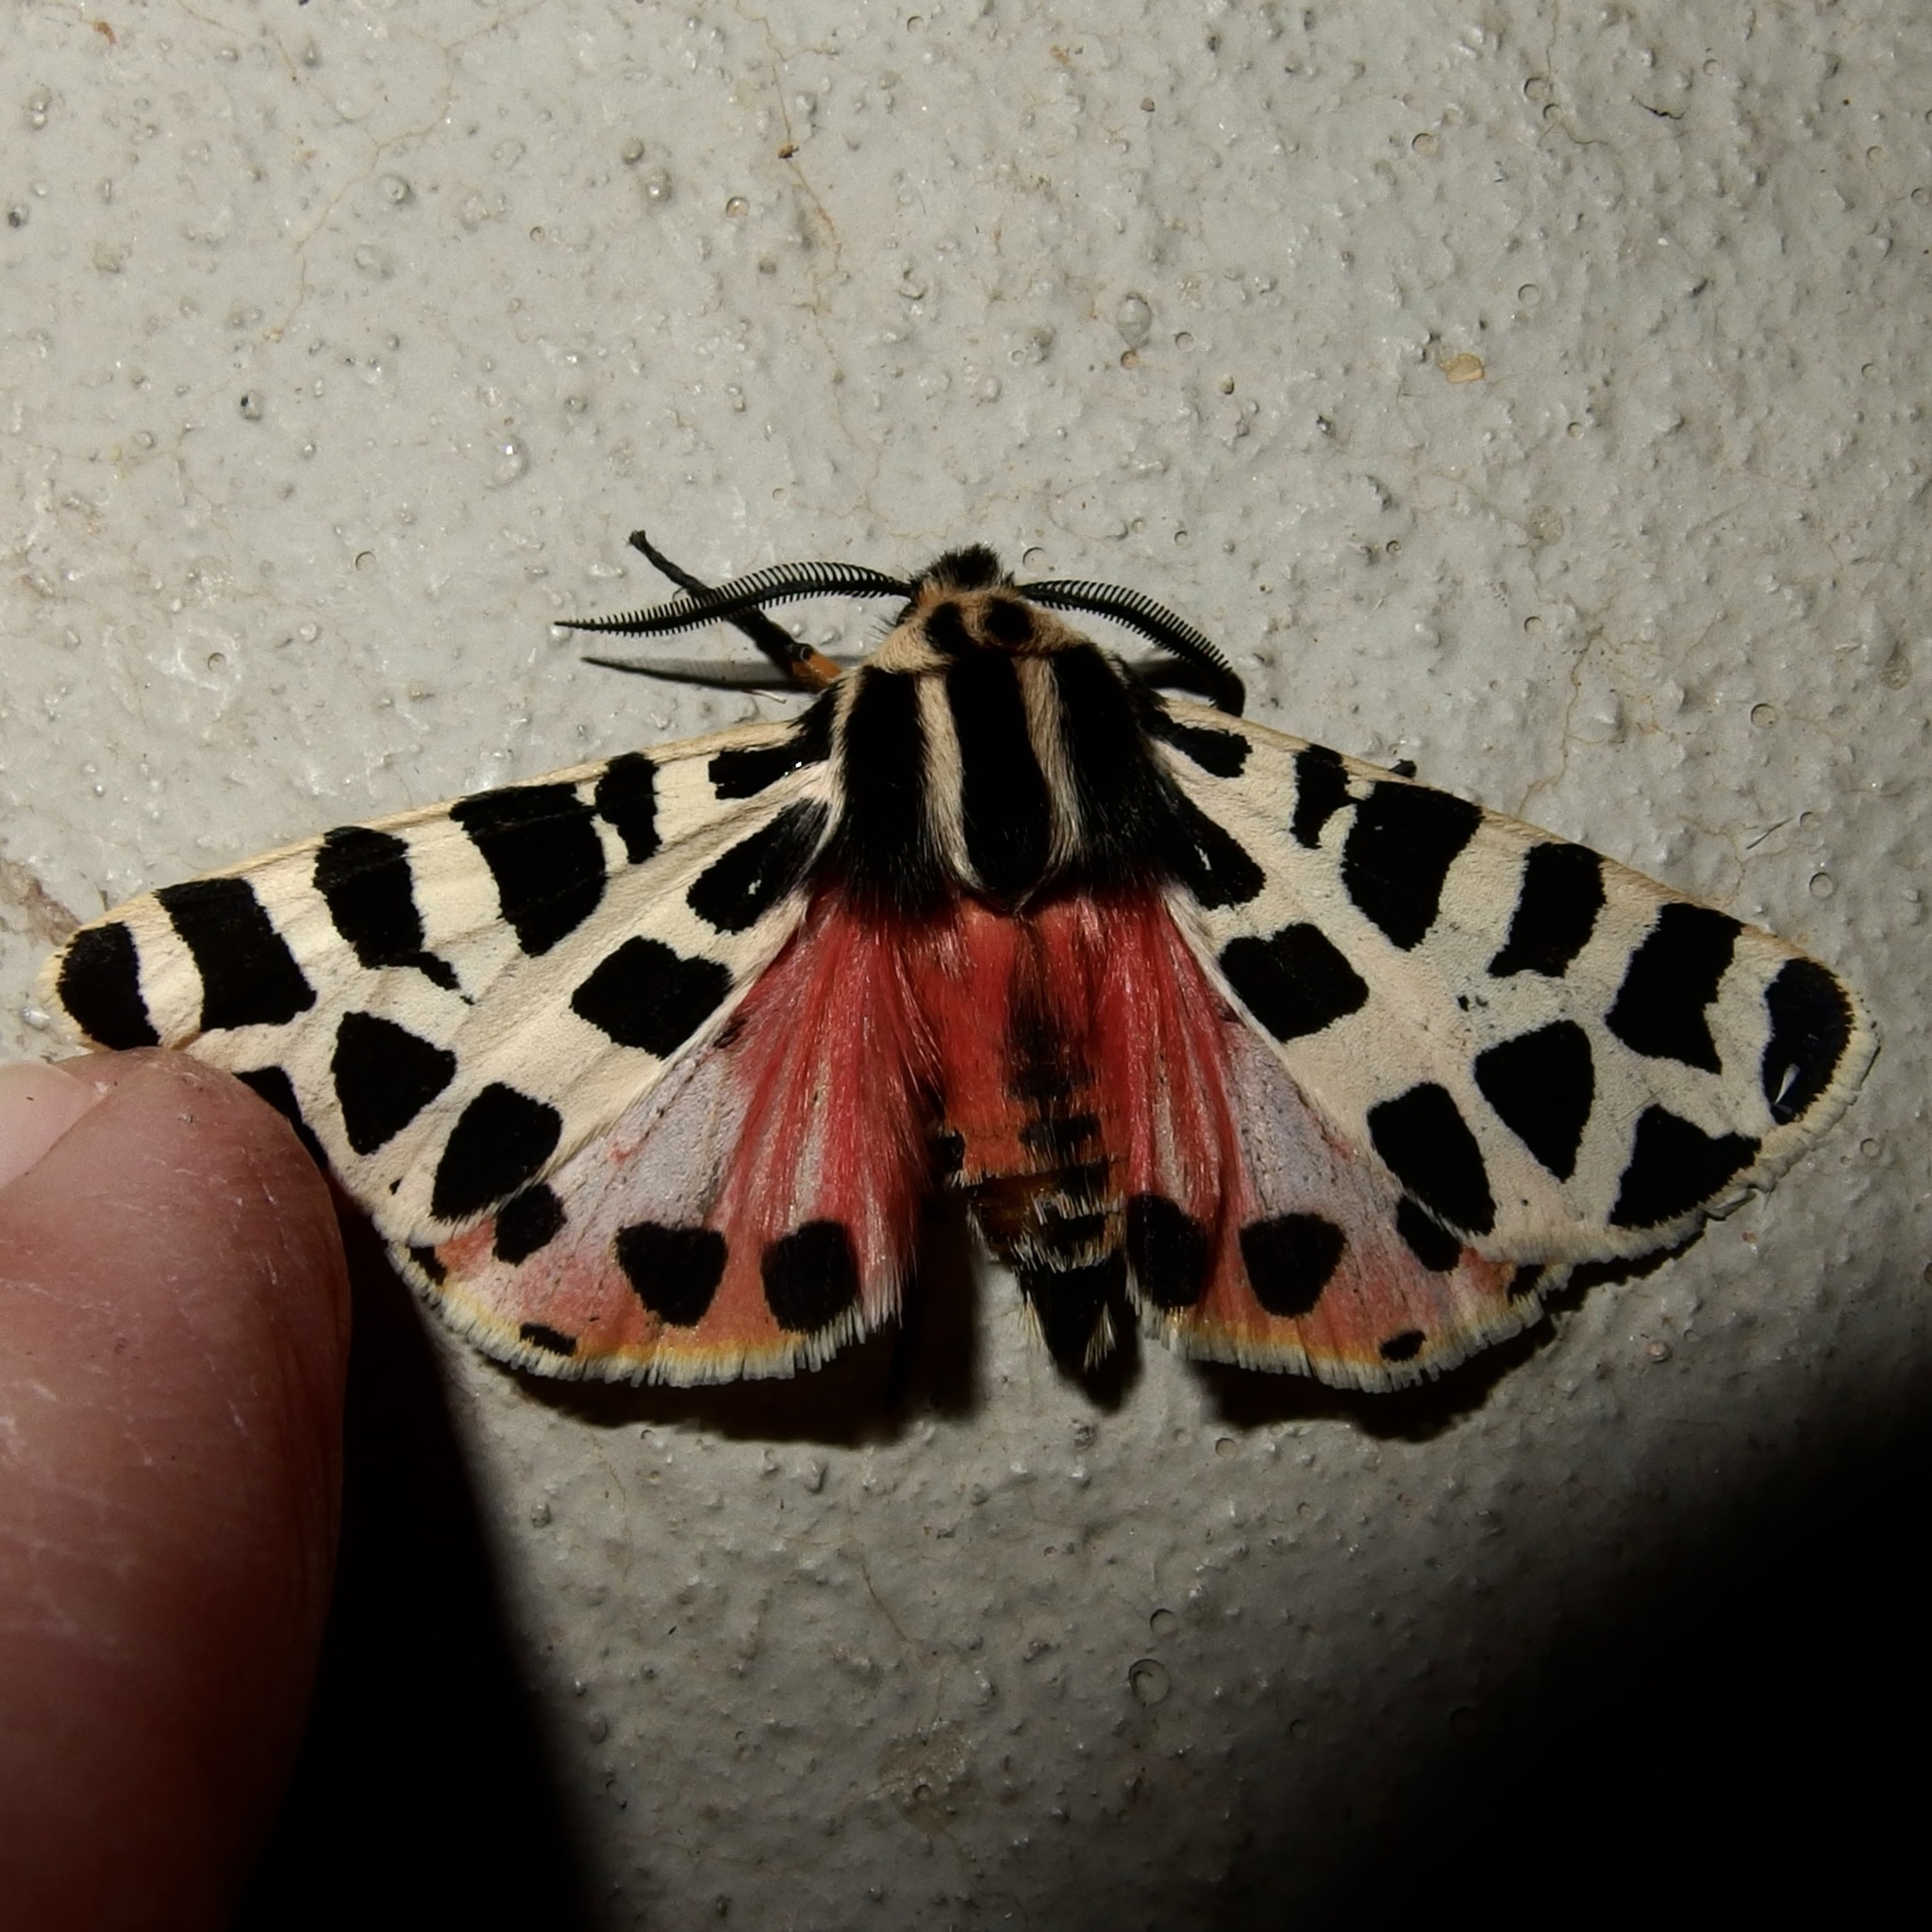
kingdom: Animalia
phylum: Arthropoda
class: Insecta
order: Lepidoptera
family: Erebidae
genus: Apantesis
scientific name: Apantesis incorrupta
